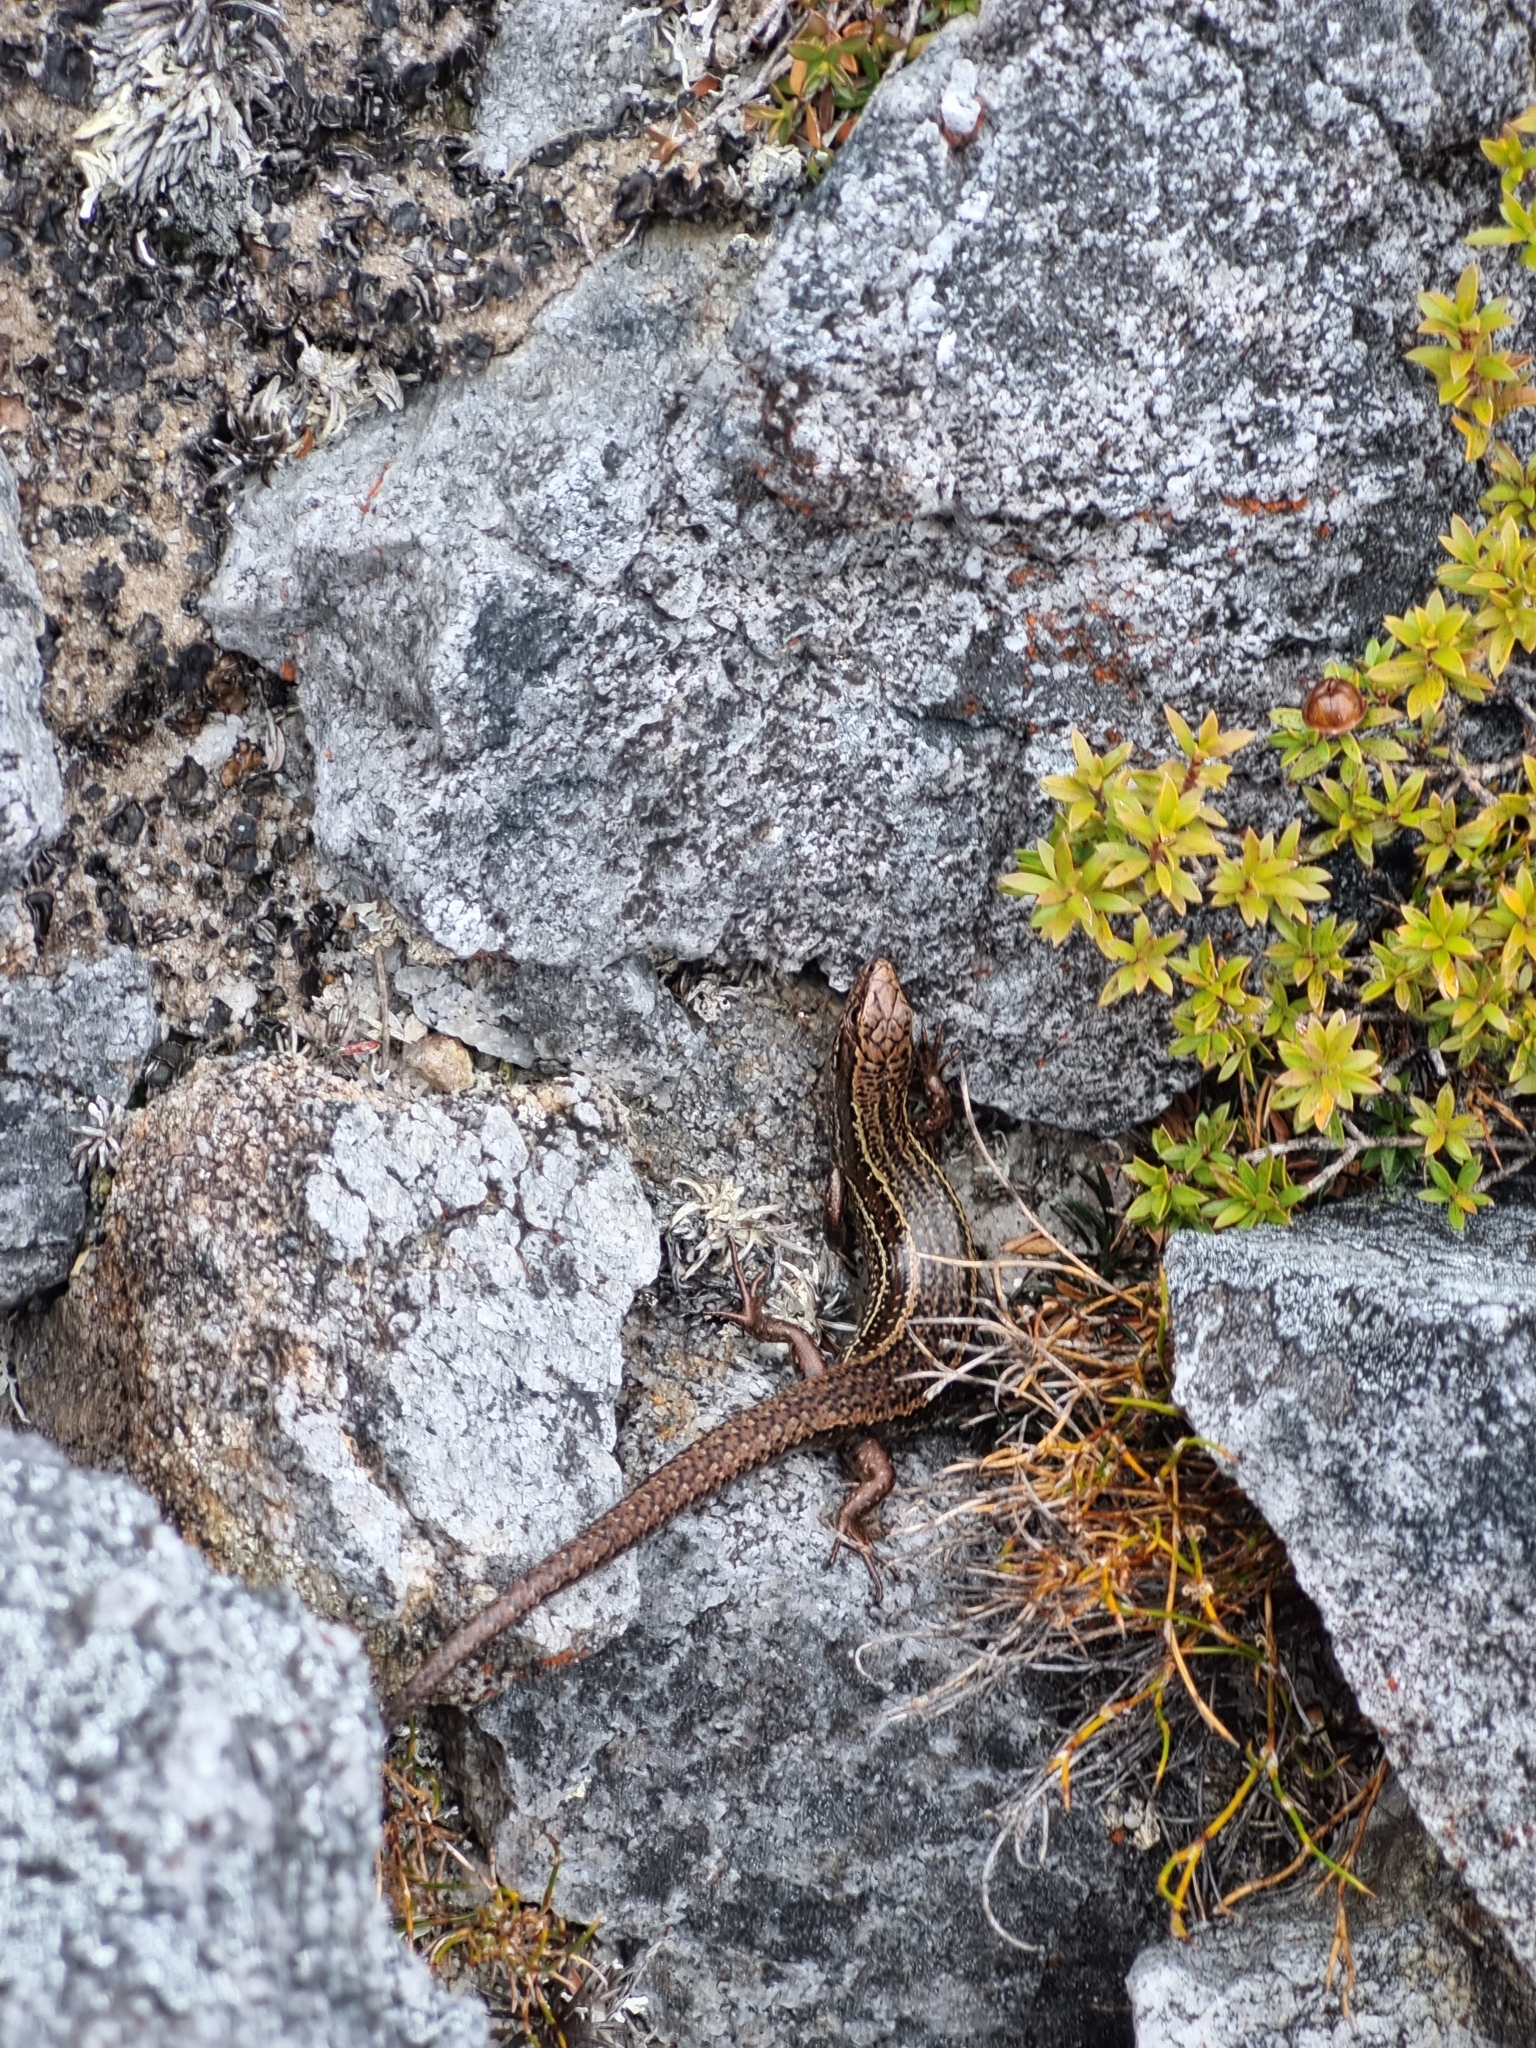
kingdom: Animalia
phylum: Chordata
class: Squamata
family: Scincidae
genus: Oligosoma
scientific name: Oligosoma newmani
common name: Newman’s speckled skink
